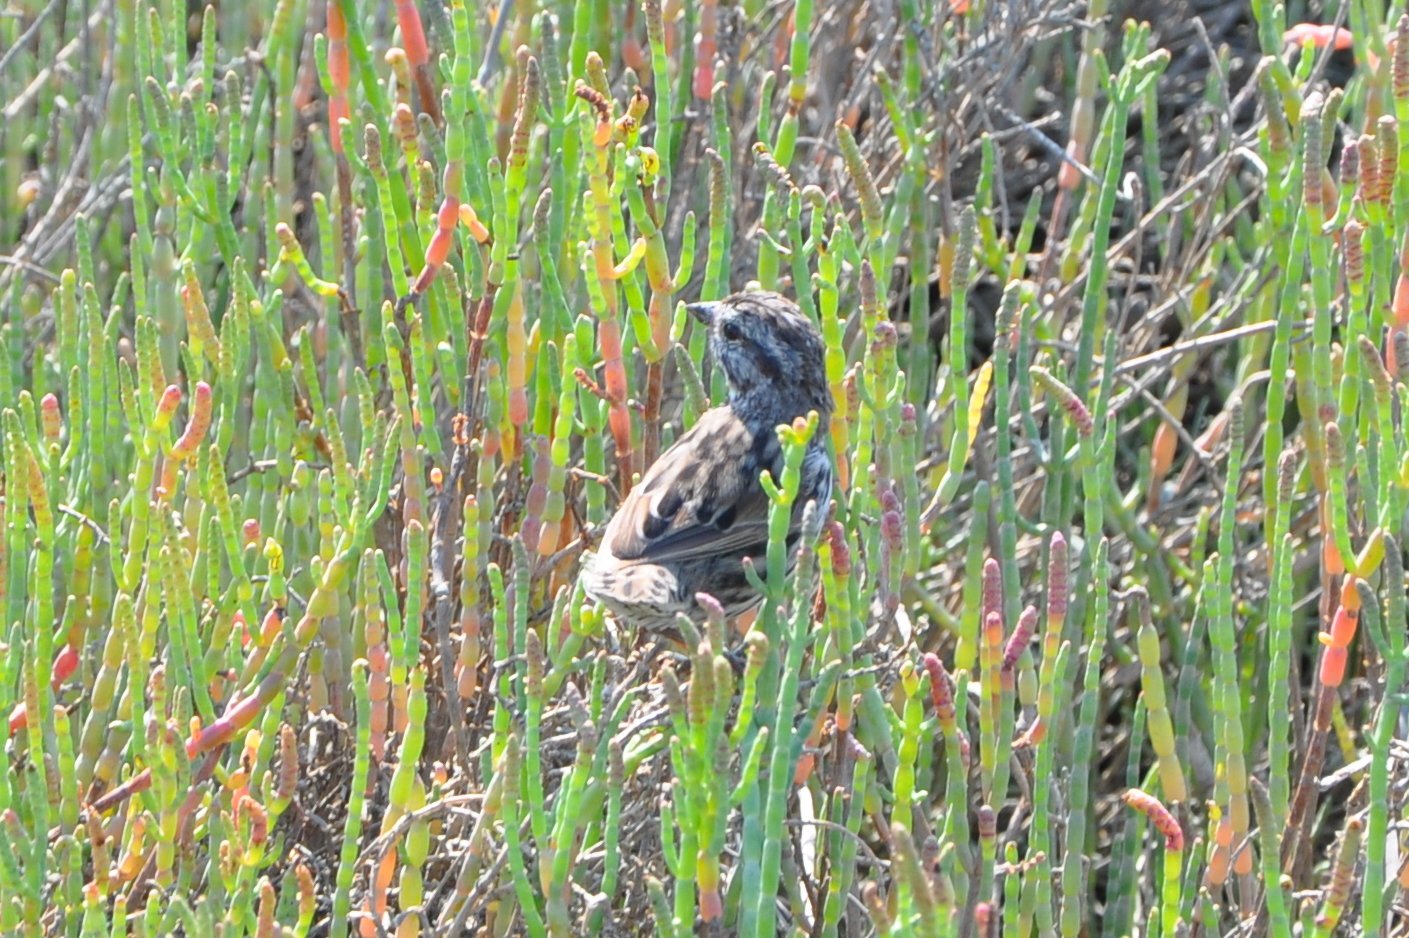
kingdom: Animalia
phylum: Chordata
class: Aves
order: Passeriformes
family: Passerellidae
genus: Melospiza
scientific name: Melospiza melodia
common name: Song sparrow
